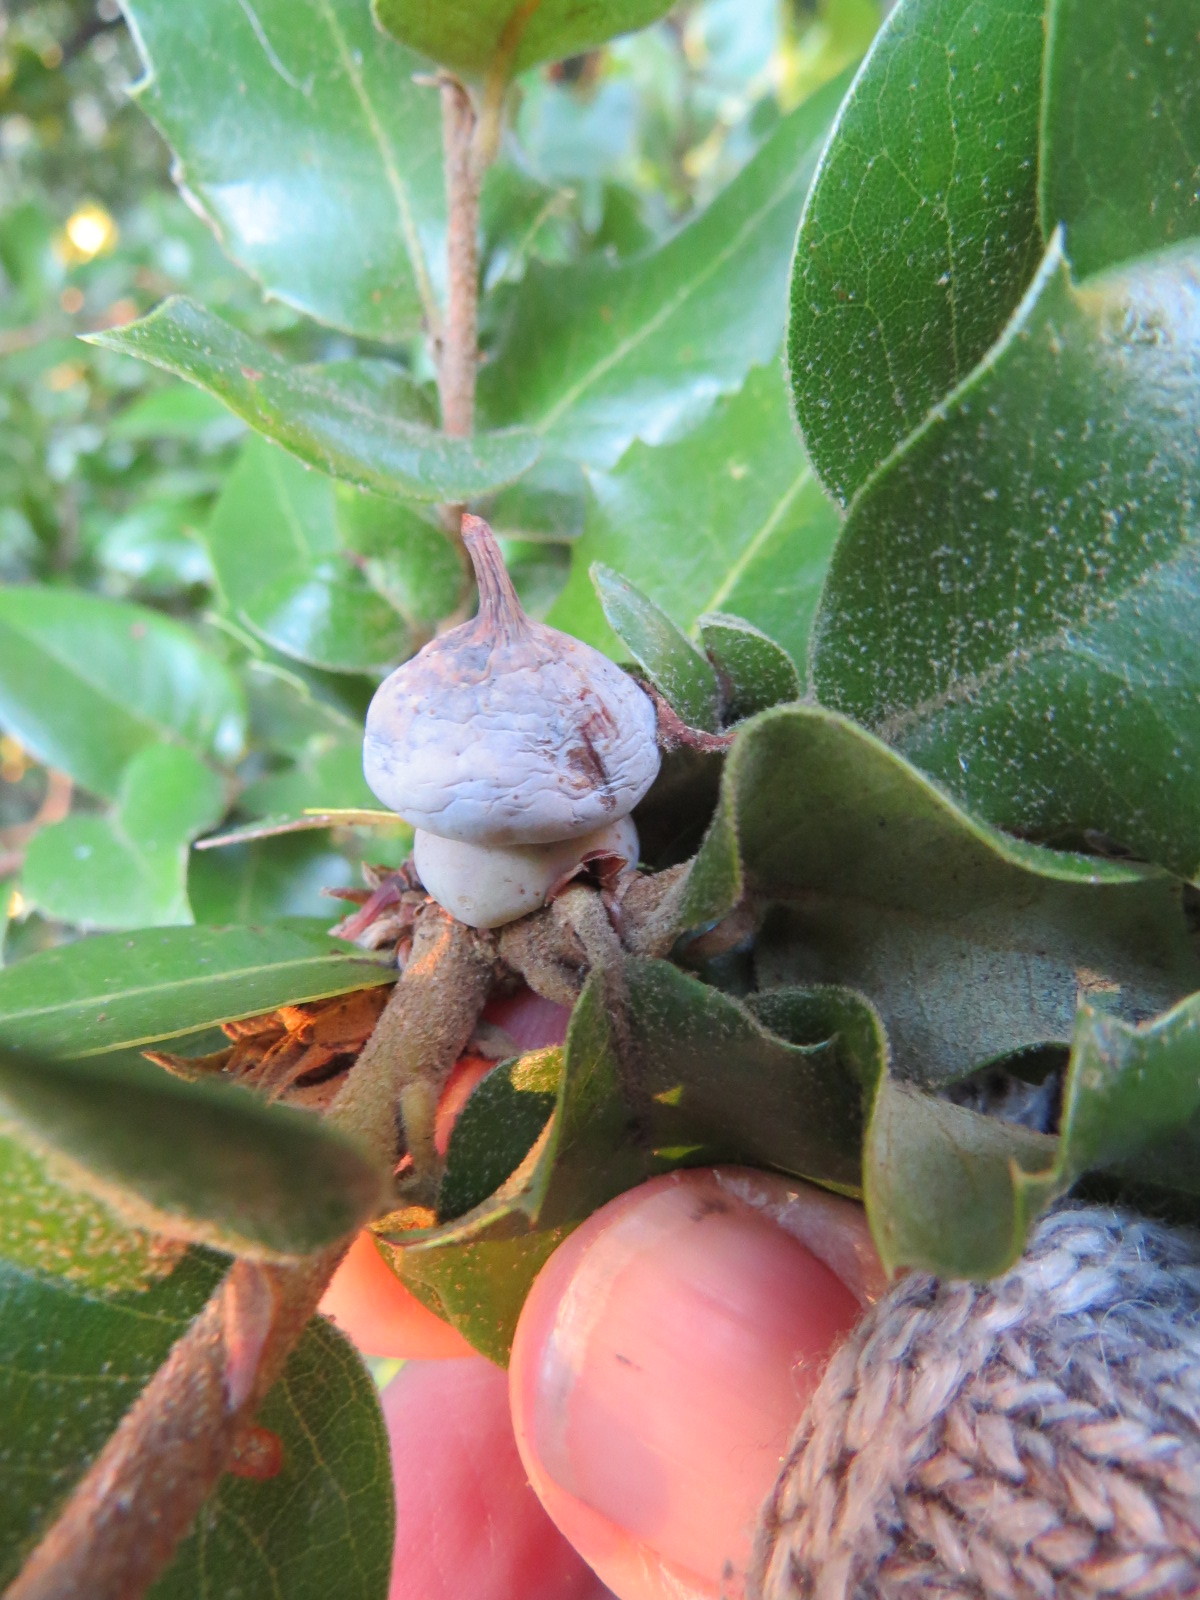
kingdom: Animalia
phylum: Arthropoda
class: Insecta
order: Hymenoptera
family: Cynipidae
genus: Heteroecus
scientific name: Heteroecus
